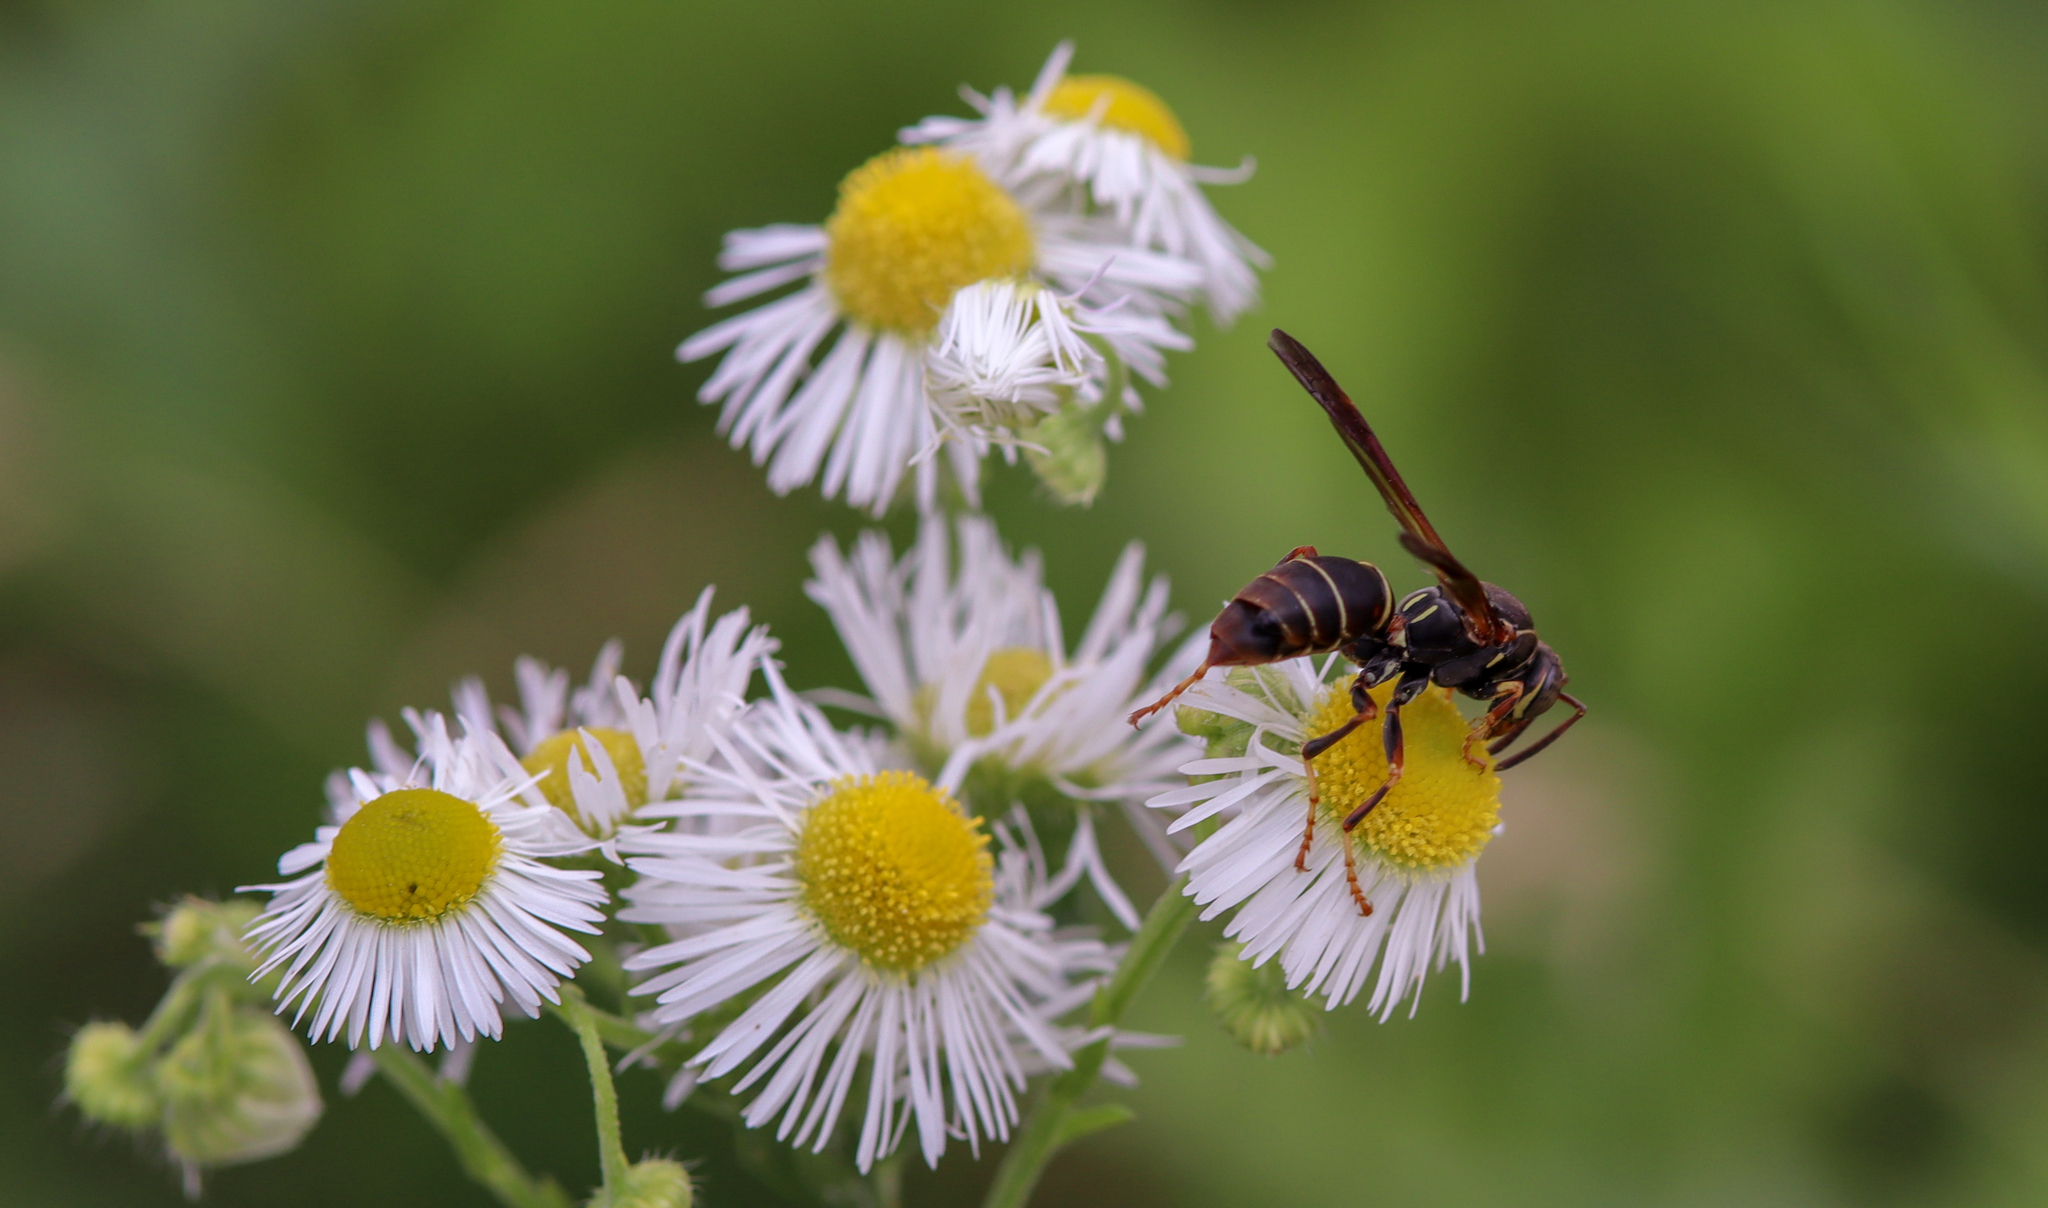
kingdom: Animalia
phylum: Arthropoda
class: Insecta
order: Hymenoptera
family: Eumenidae
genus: Polistes
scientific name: Polistes fuscatus
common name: Dark paper wasp
